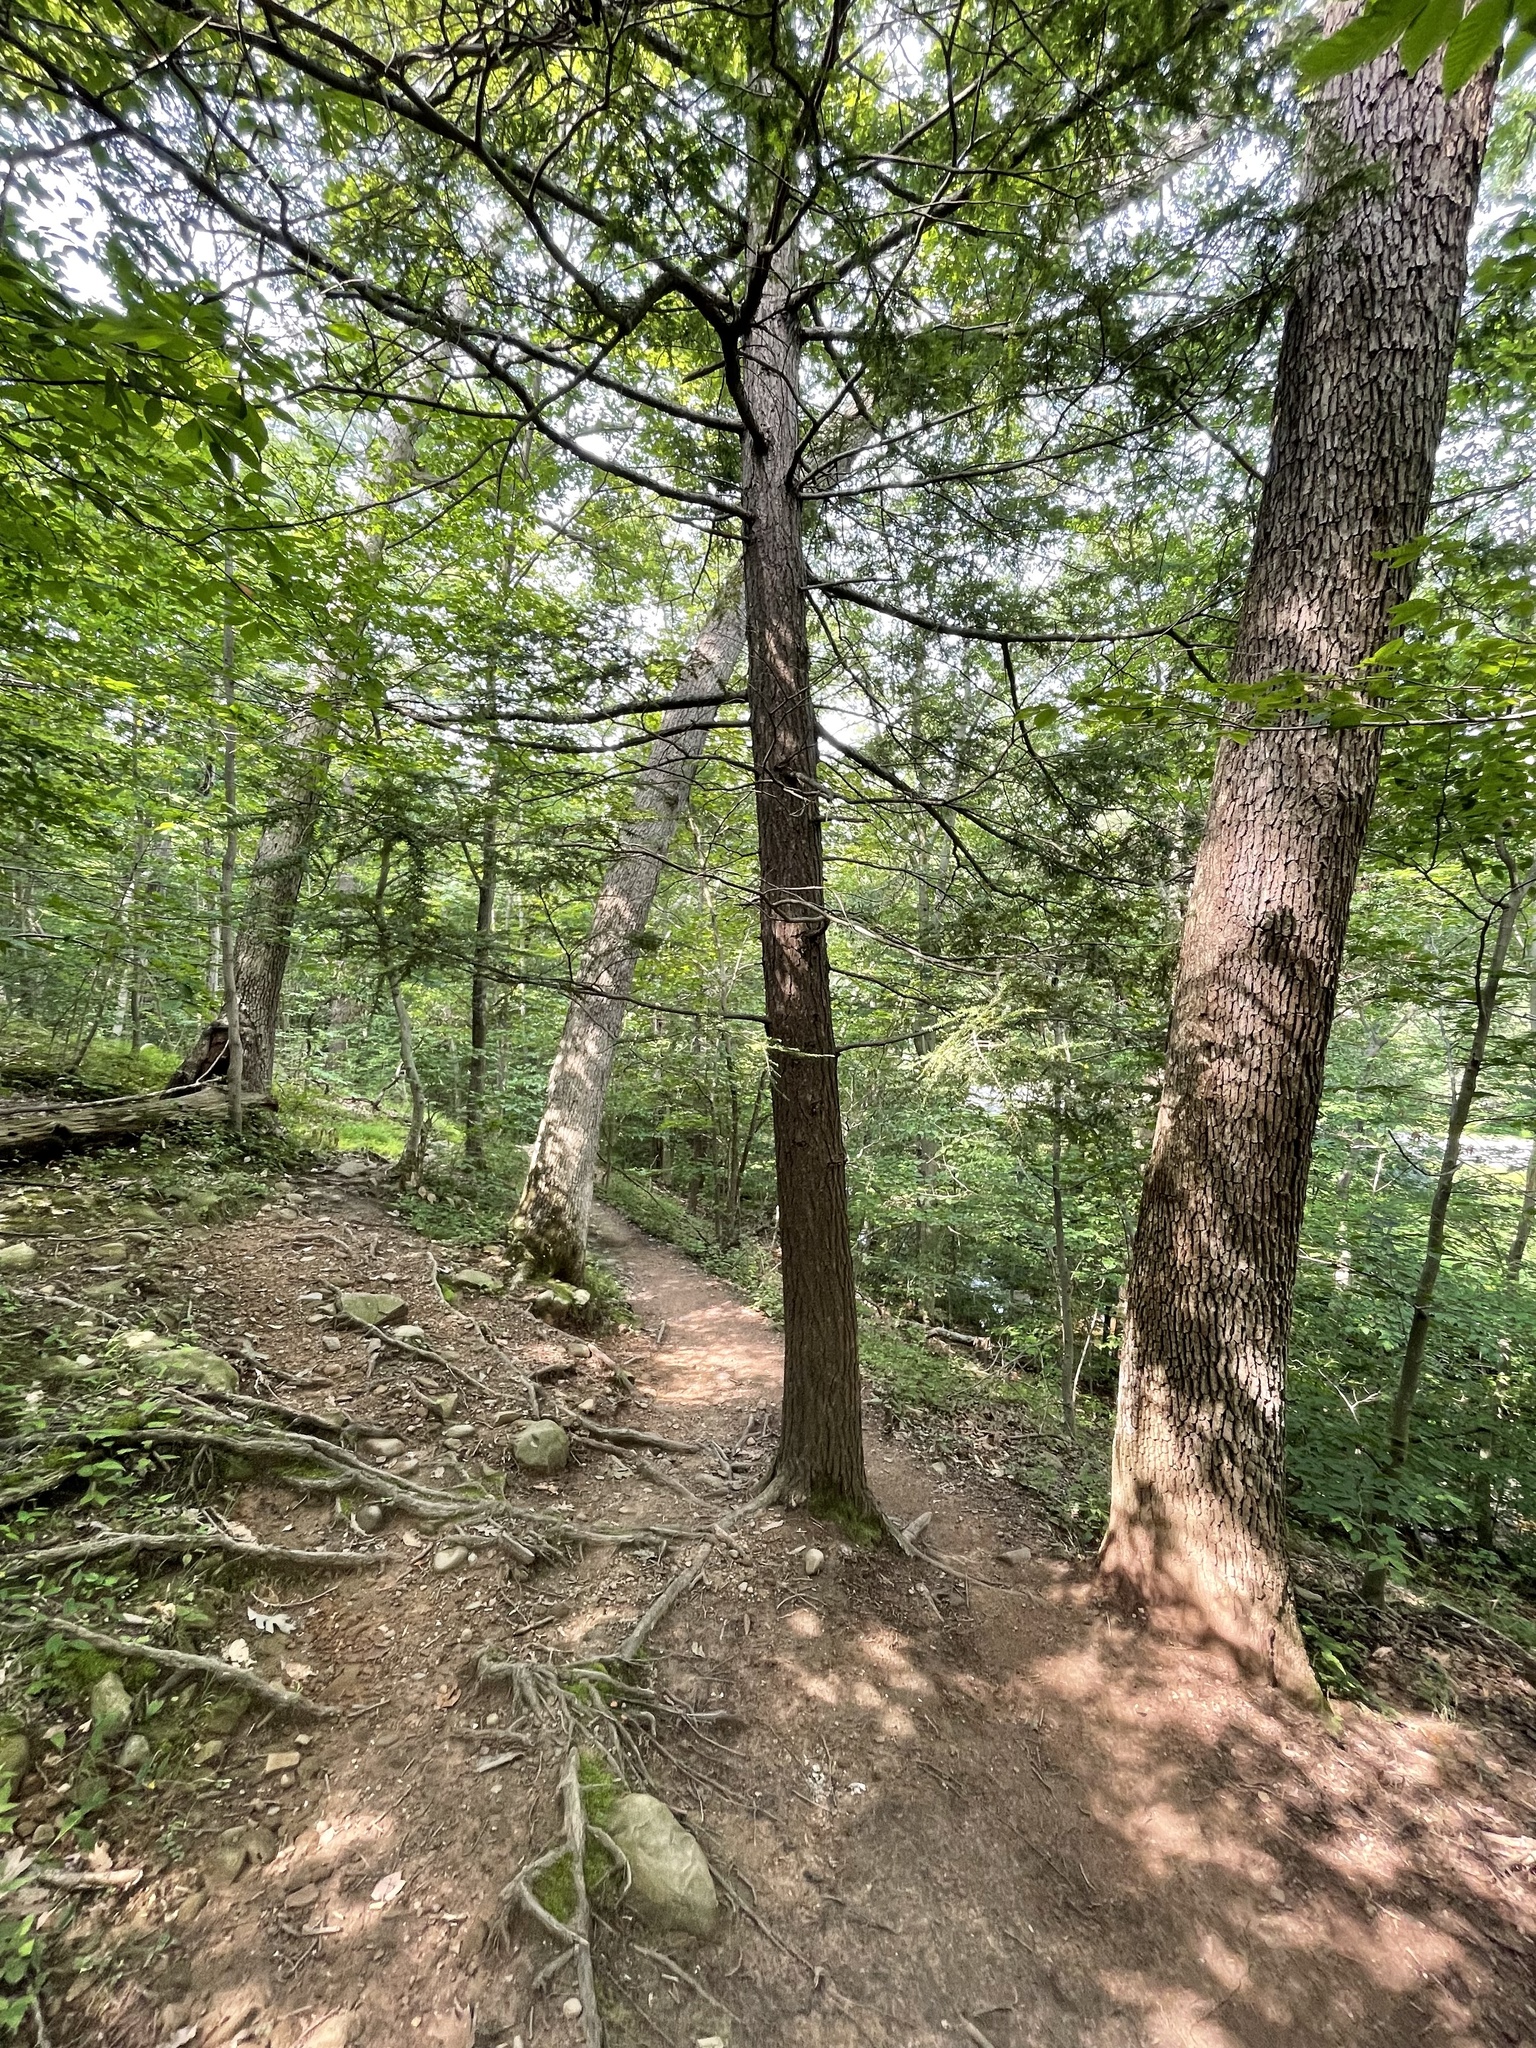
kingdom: Plantae
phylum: Tracheophyta
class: Pinopsida
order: Pinales
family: Pinaceae
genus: Tsuga
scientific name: Tsuga canadensis
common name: Eastern hemlock
